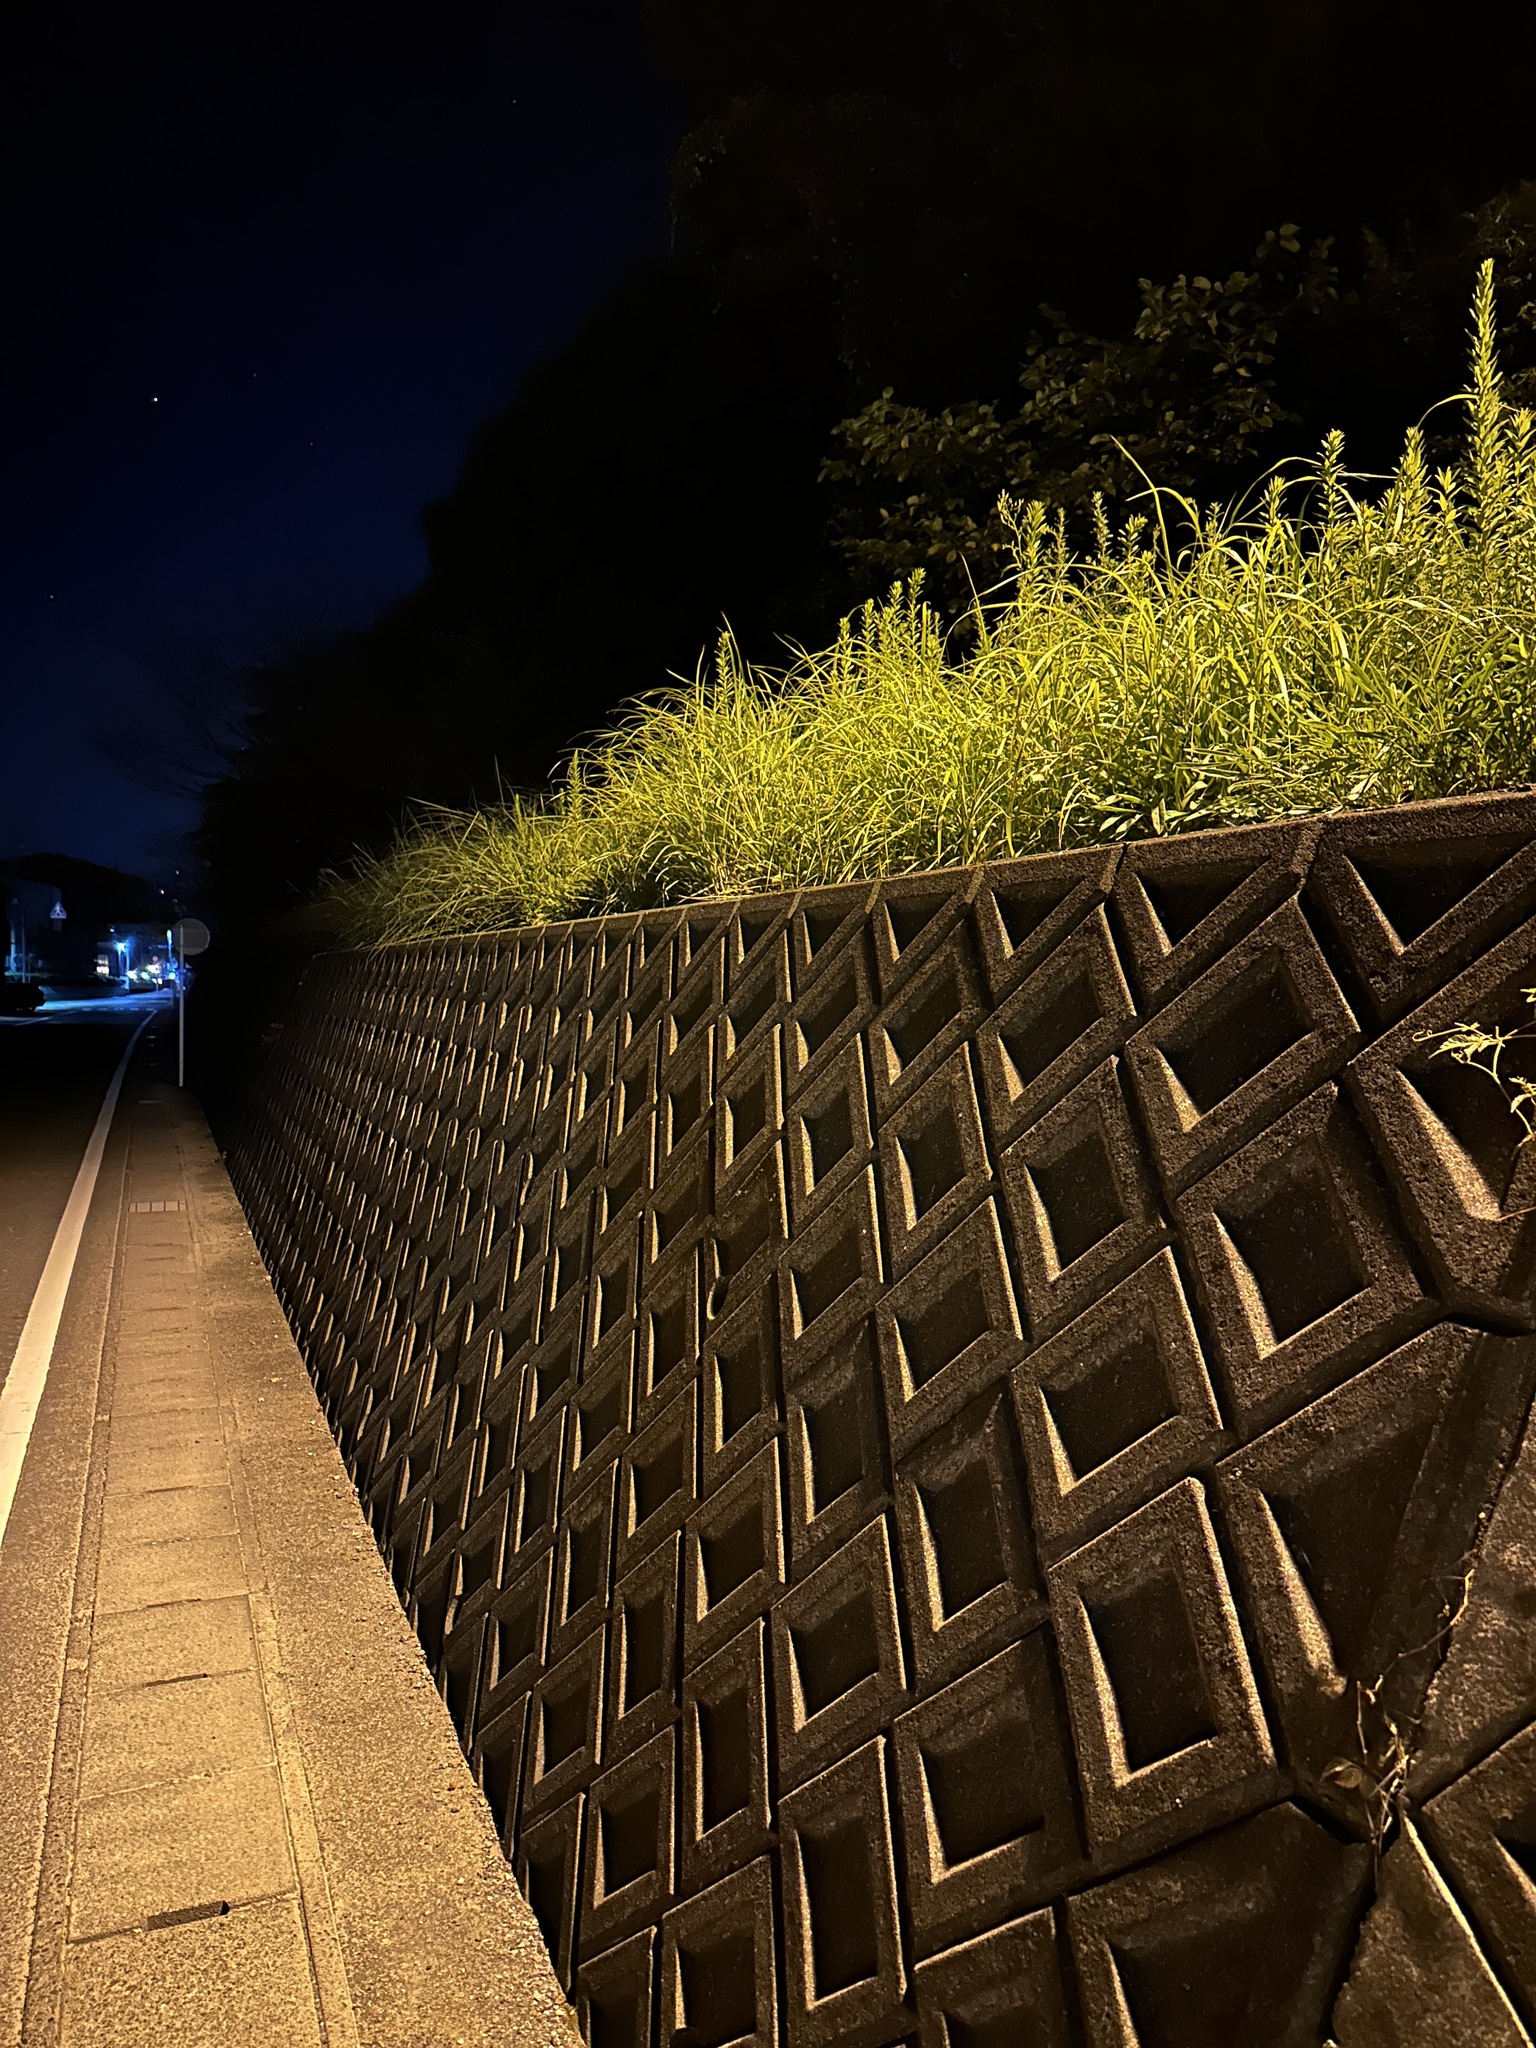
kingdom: Animalia
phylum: Arthropoda
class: Insecta
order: Orthoptera
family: Gryllidae
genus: Xenogryllus
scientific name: Xenogryllus marmoratus
